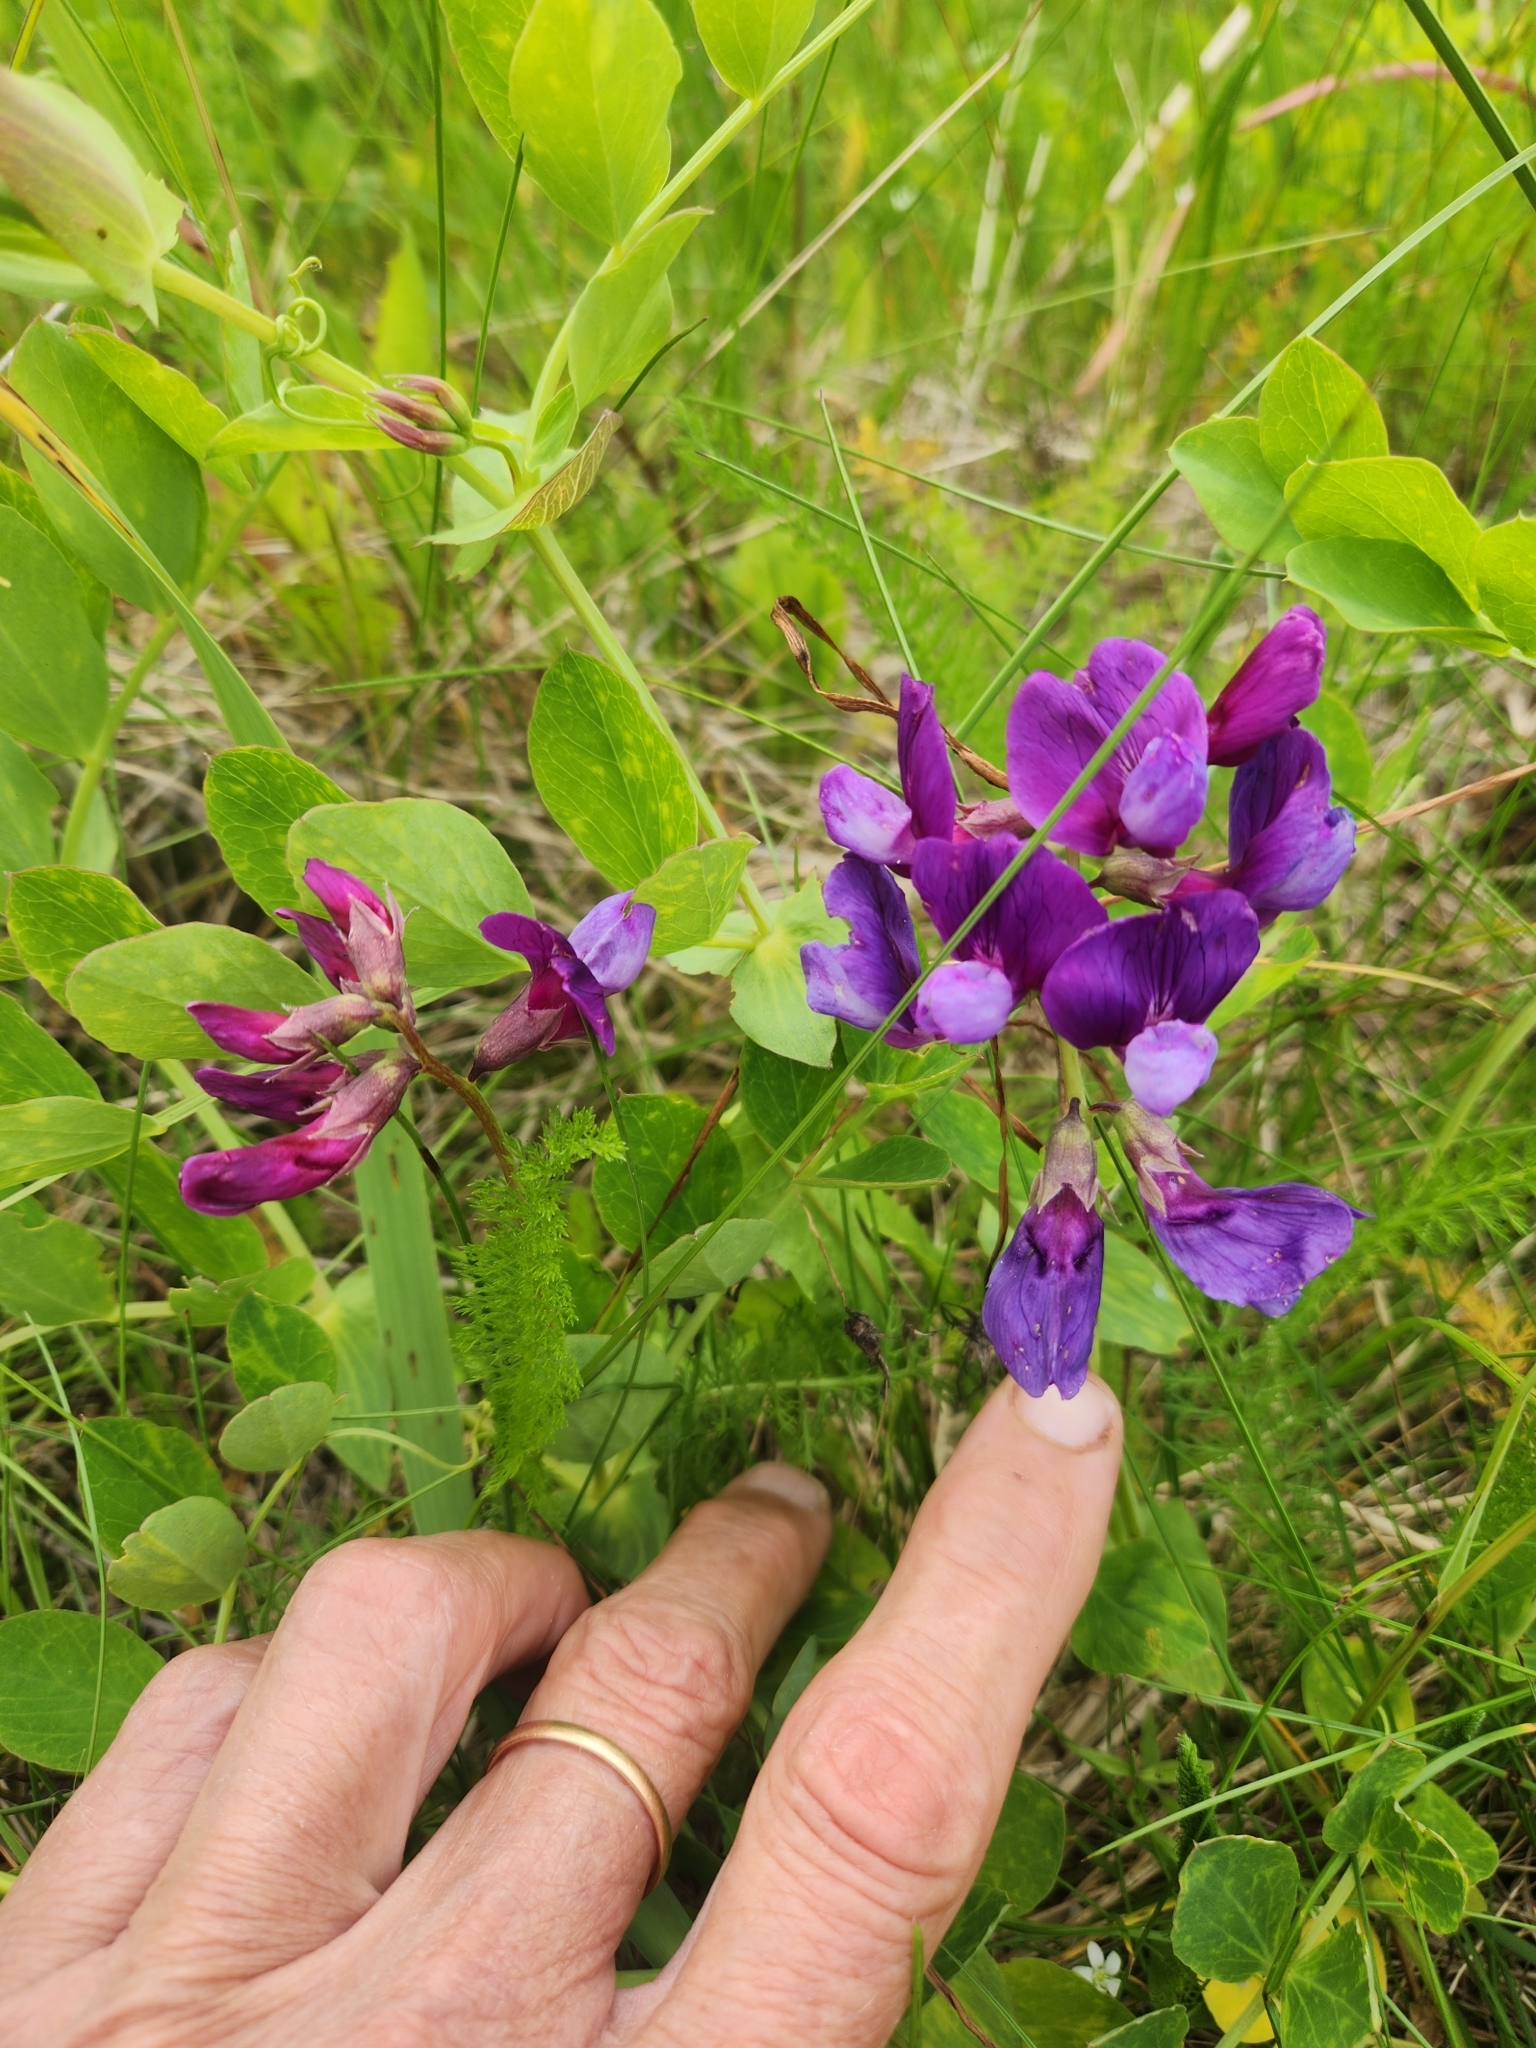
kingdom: Plantae
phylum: Tracheophyta
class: Magnoliopsida
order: Fabales
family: Fabaceae
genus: Lathyrus
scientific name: Lathyrus japonicus
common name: Sea pea
